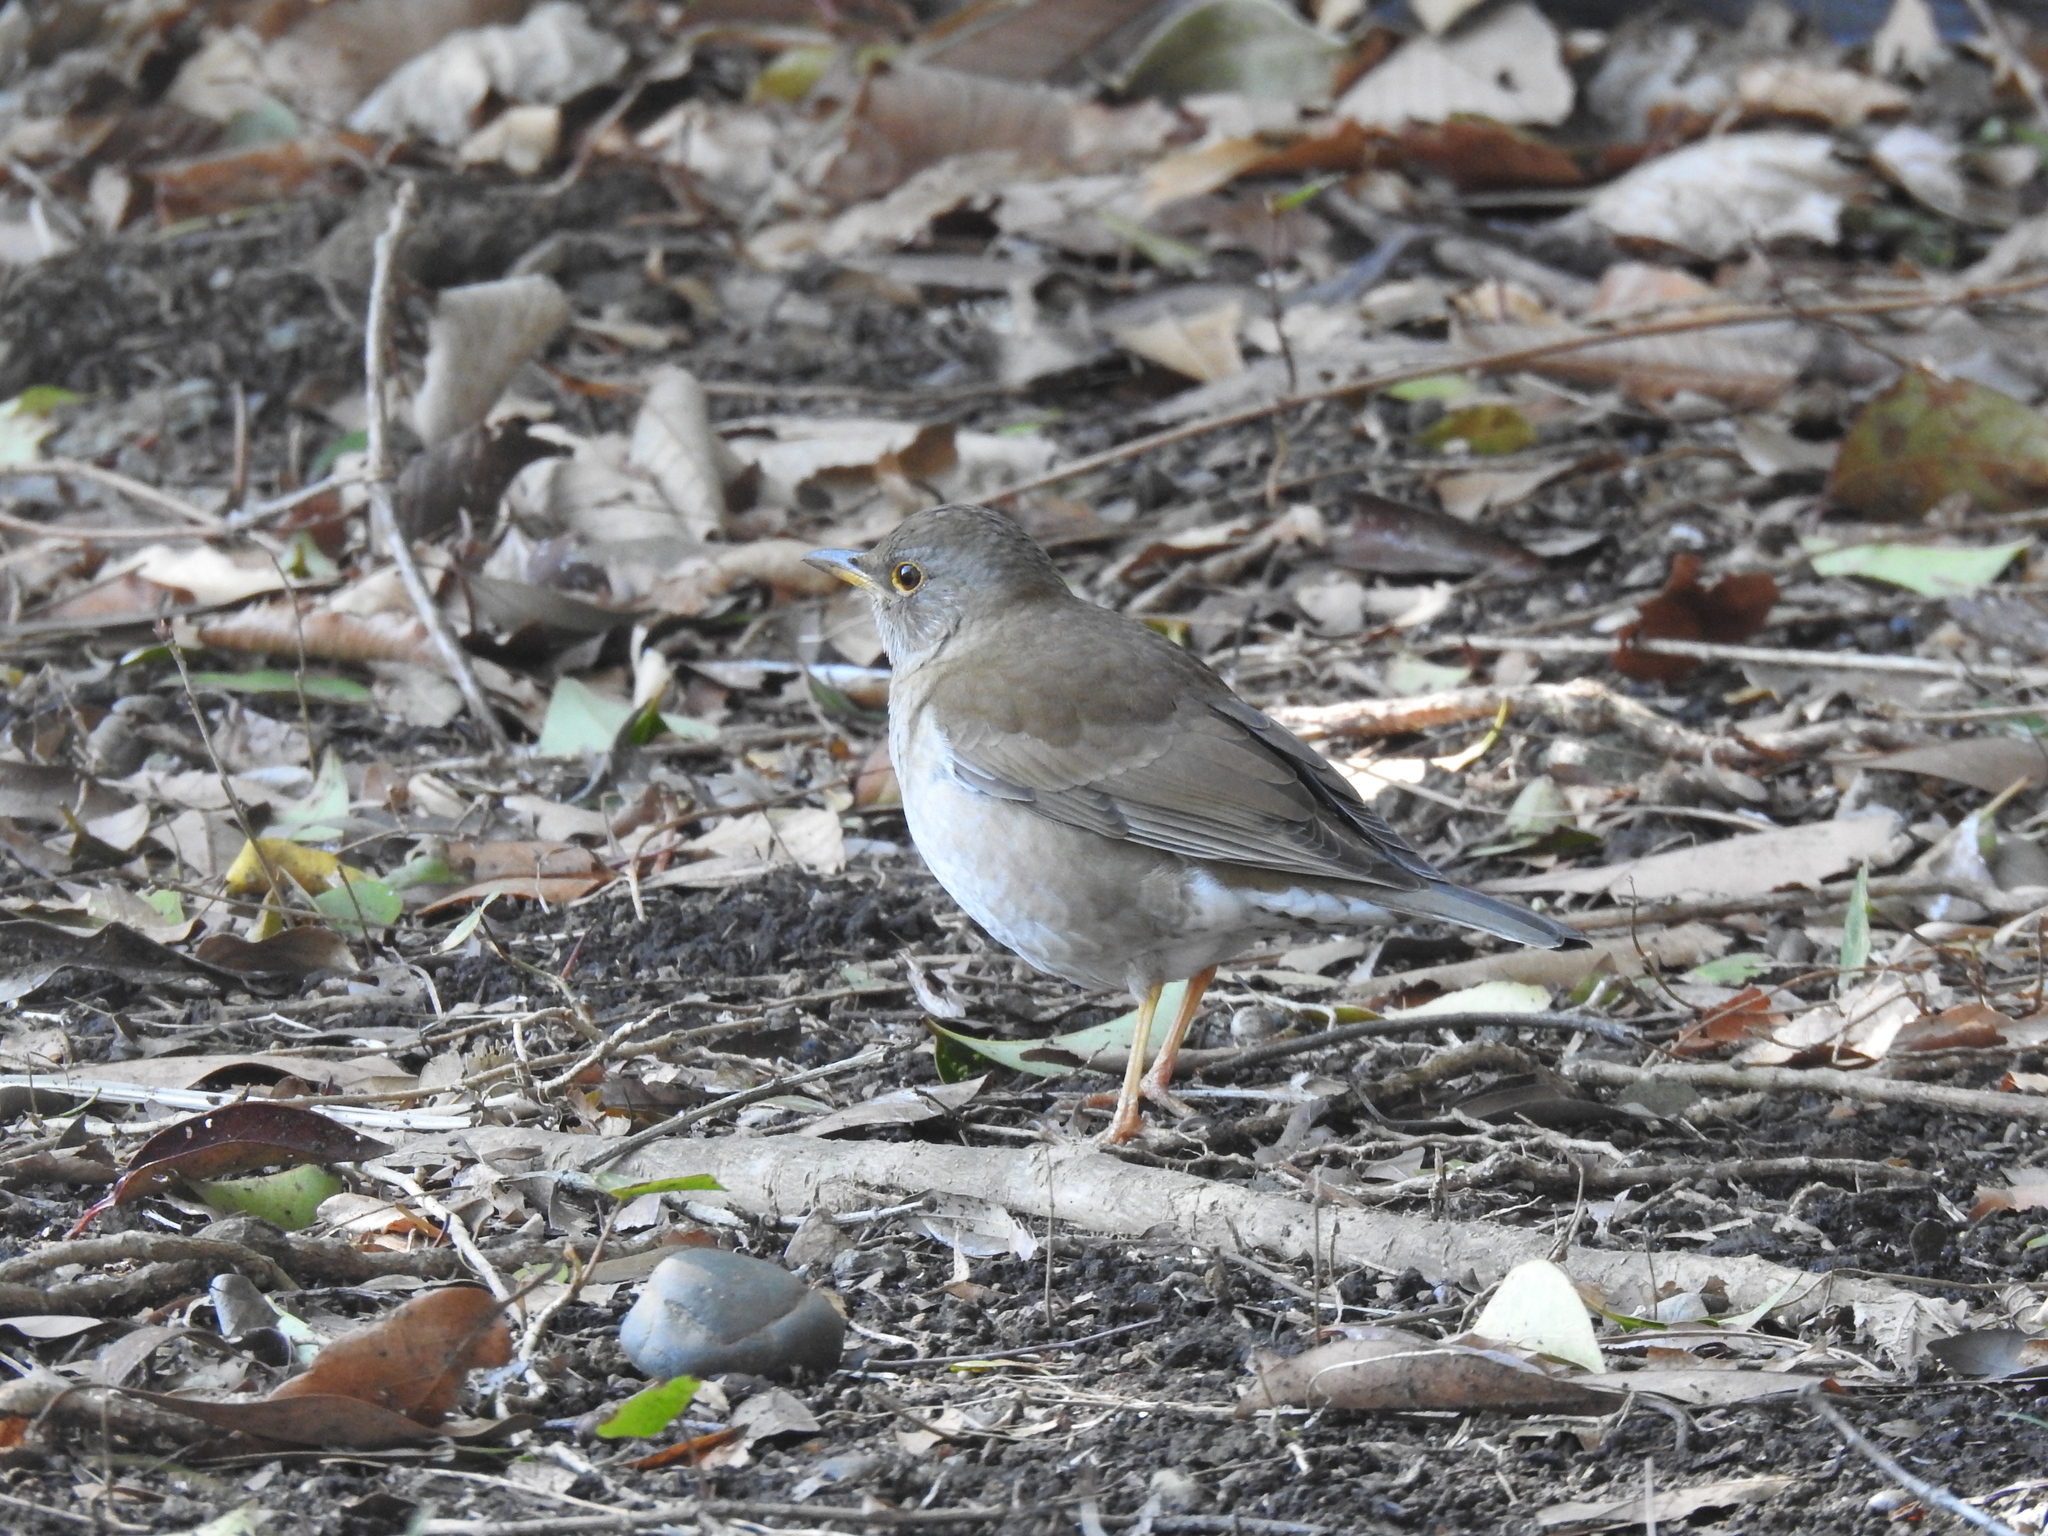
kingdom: Animalia
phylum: Chordata
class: Aves
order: Passeriformes
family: Turdidae
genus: Turdus
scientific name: Turdus pallidus
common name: Pale thrush
